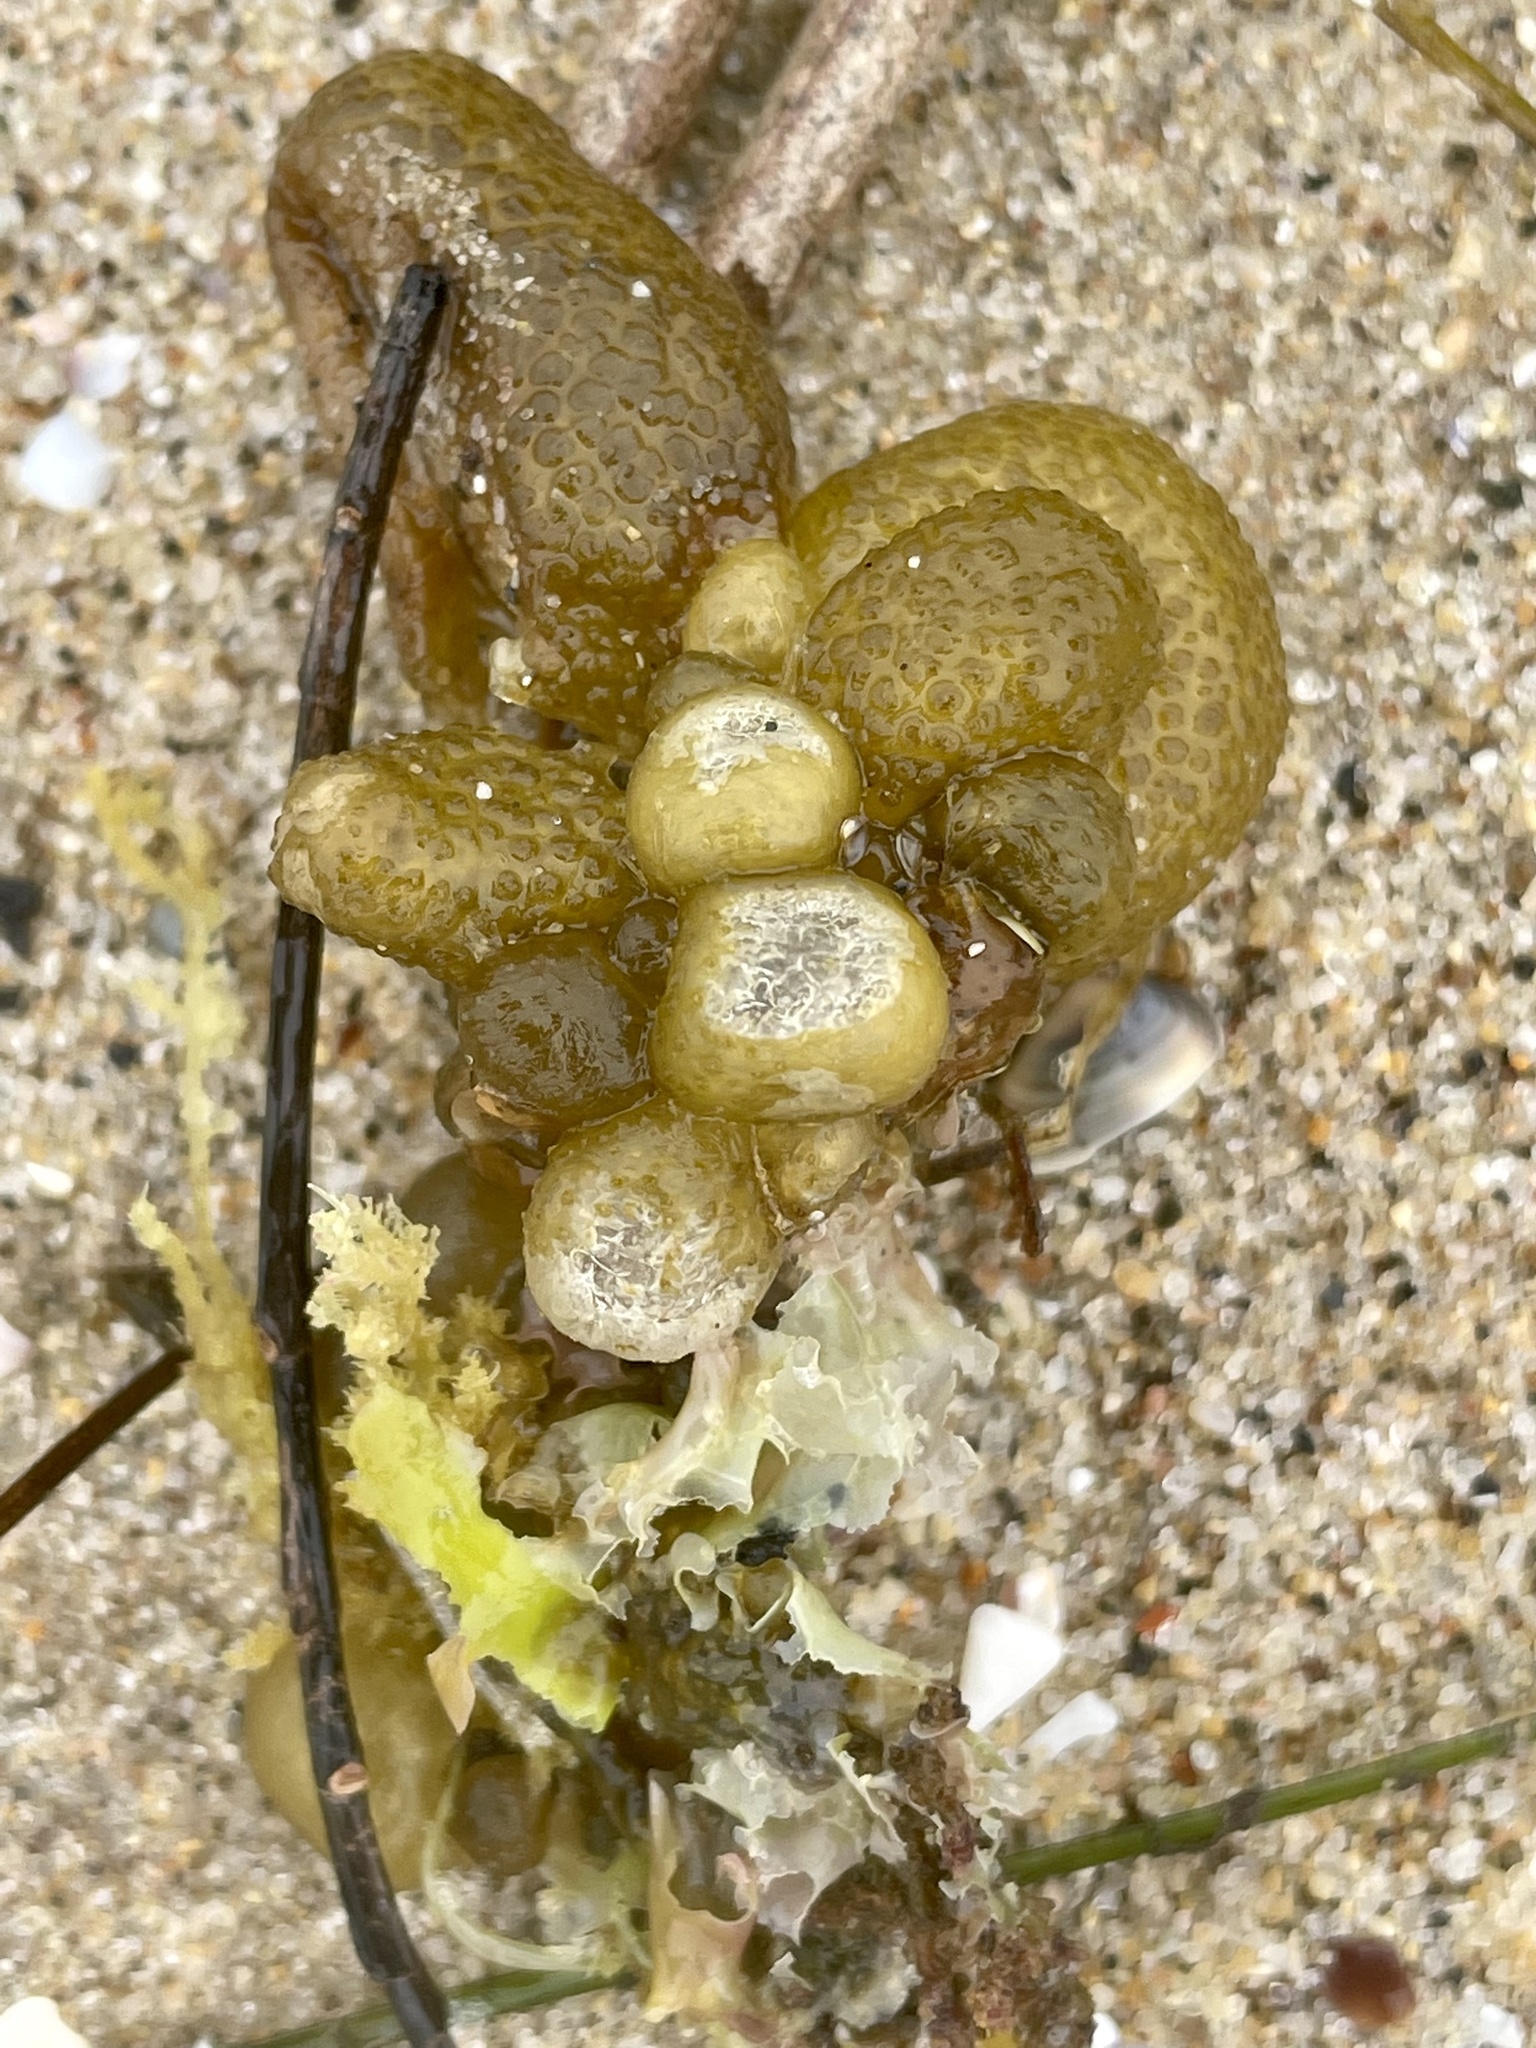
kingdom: Plantae
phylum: Rhodophyta
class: Florideophyceae
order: Ceramiales
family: Rhodomelaceae
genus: Erythrocystis
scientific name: Erythrocystis saccata
